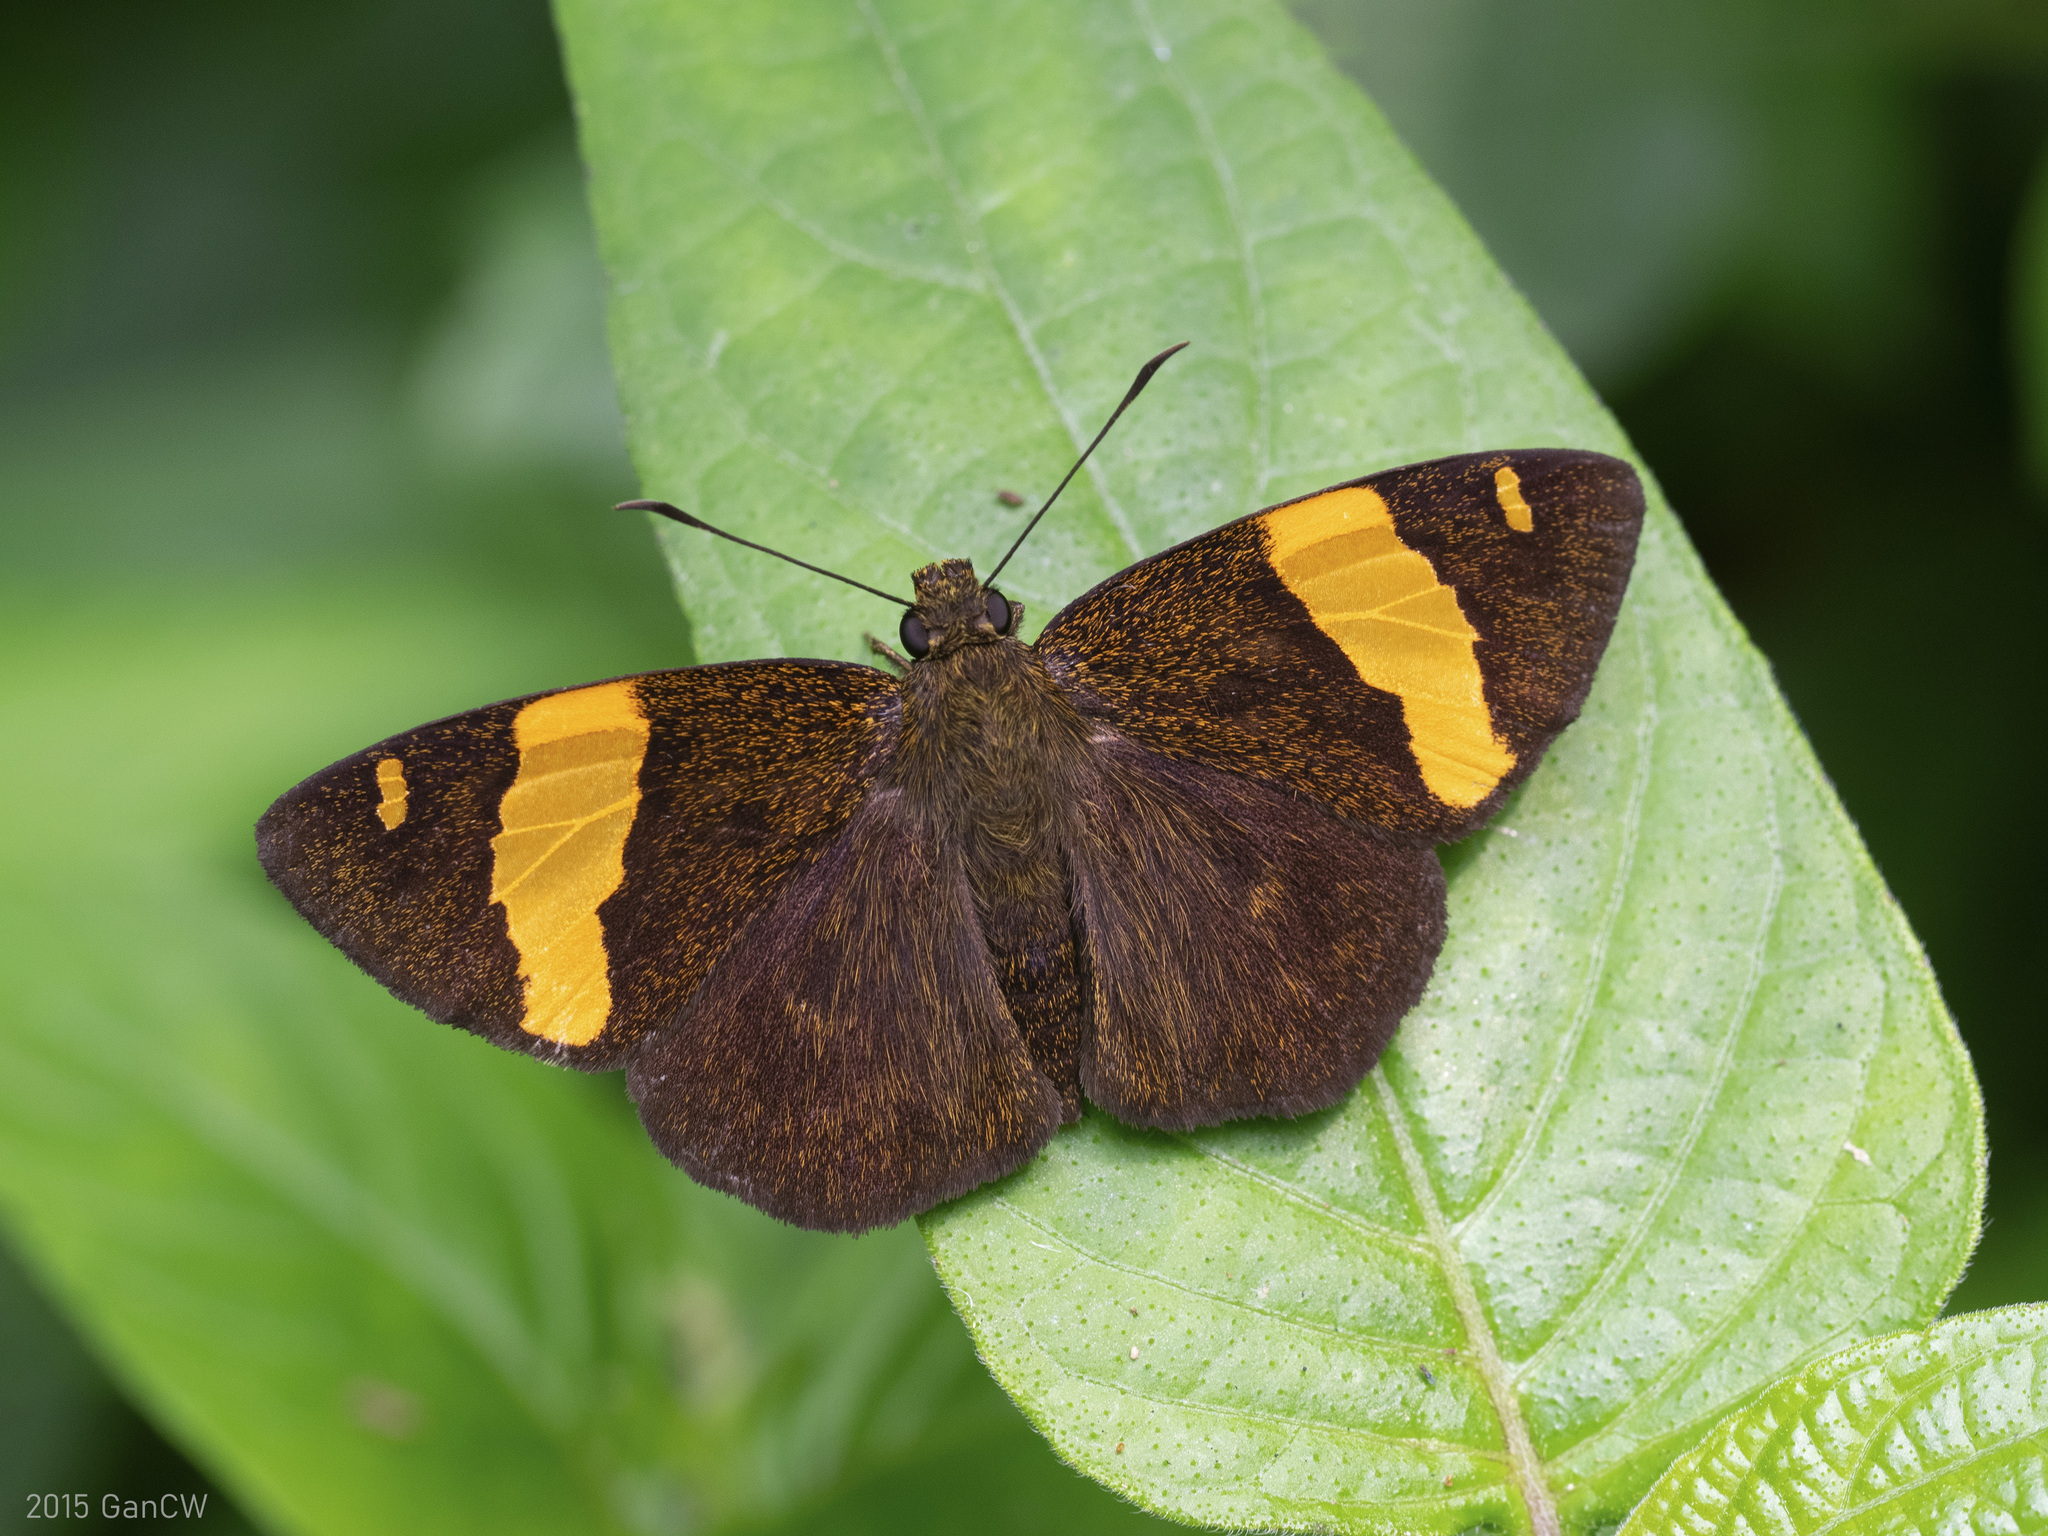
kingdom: Animalia
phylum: Arthropoda
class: Insecta
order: Lepidoptera
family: Hesperiidae
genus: Aurivittia
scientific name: Aurivittia
